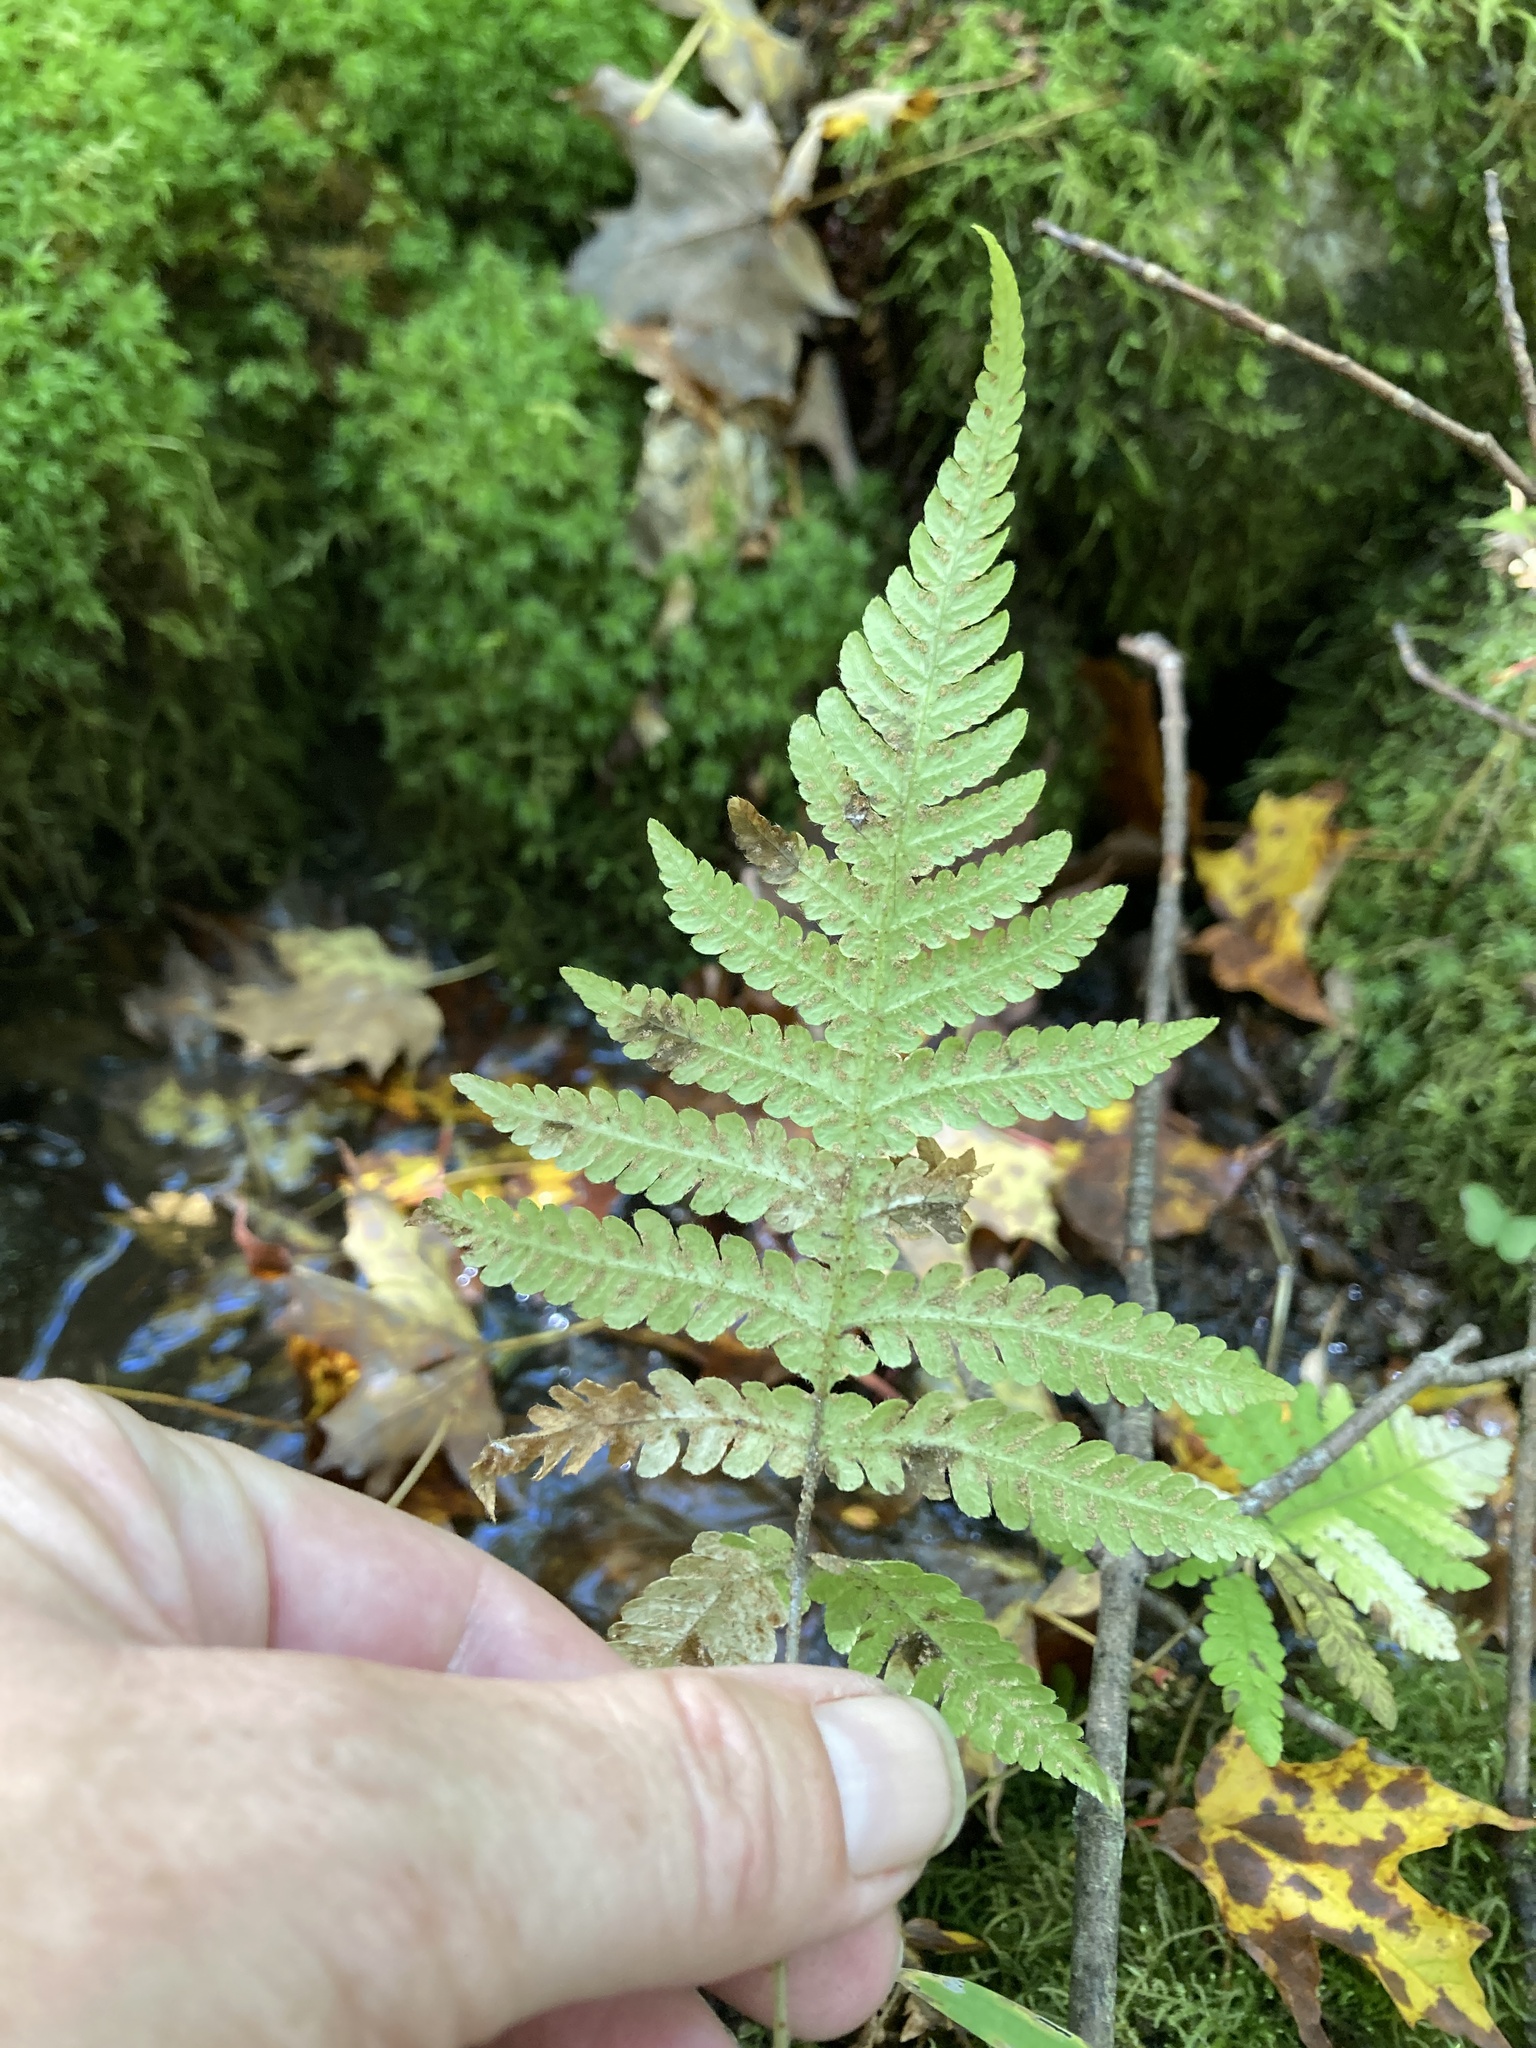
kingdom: Plantae
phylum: Tracheophyta
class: Polypodiopsida
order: Polypodiales
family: Thelypteridaceae
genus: Phegopteris
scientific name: Phegopteris connectilis
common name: Beech fern
